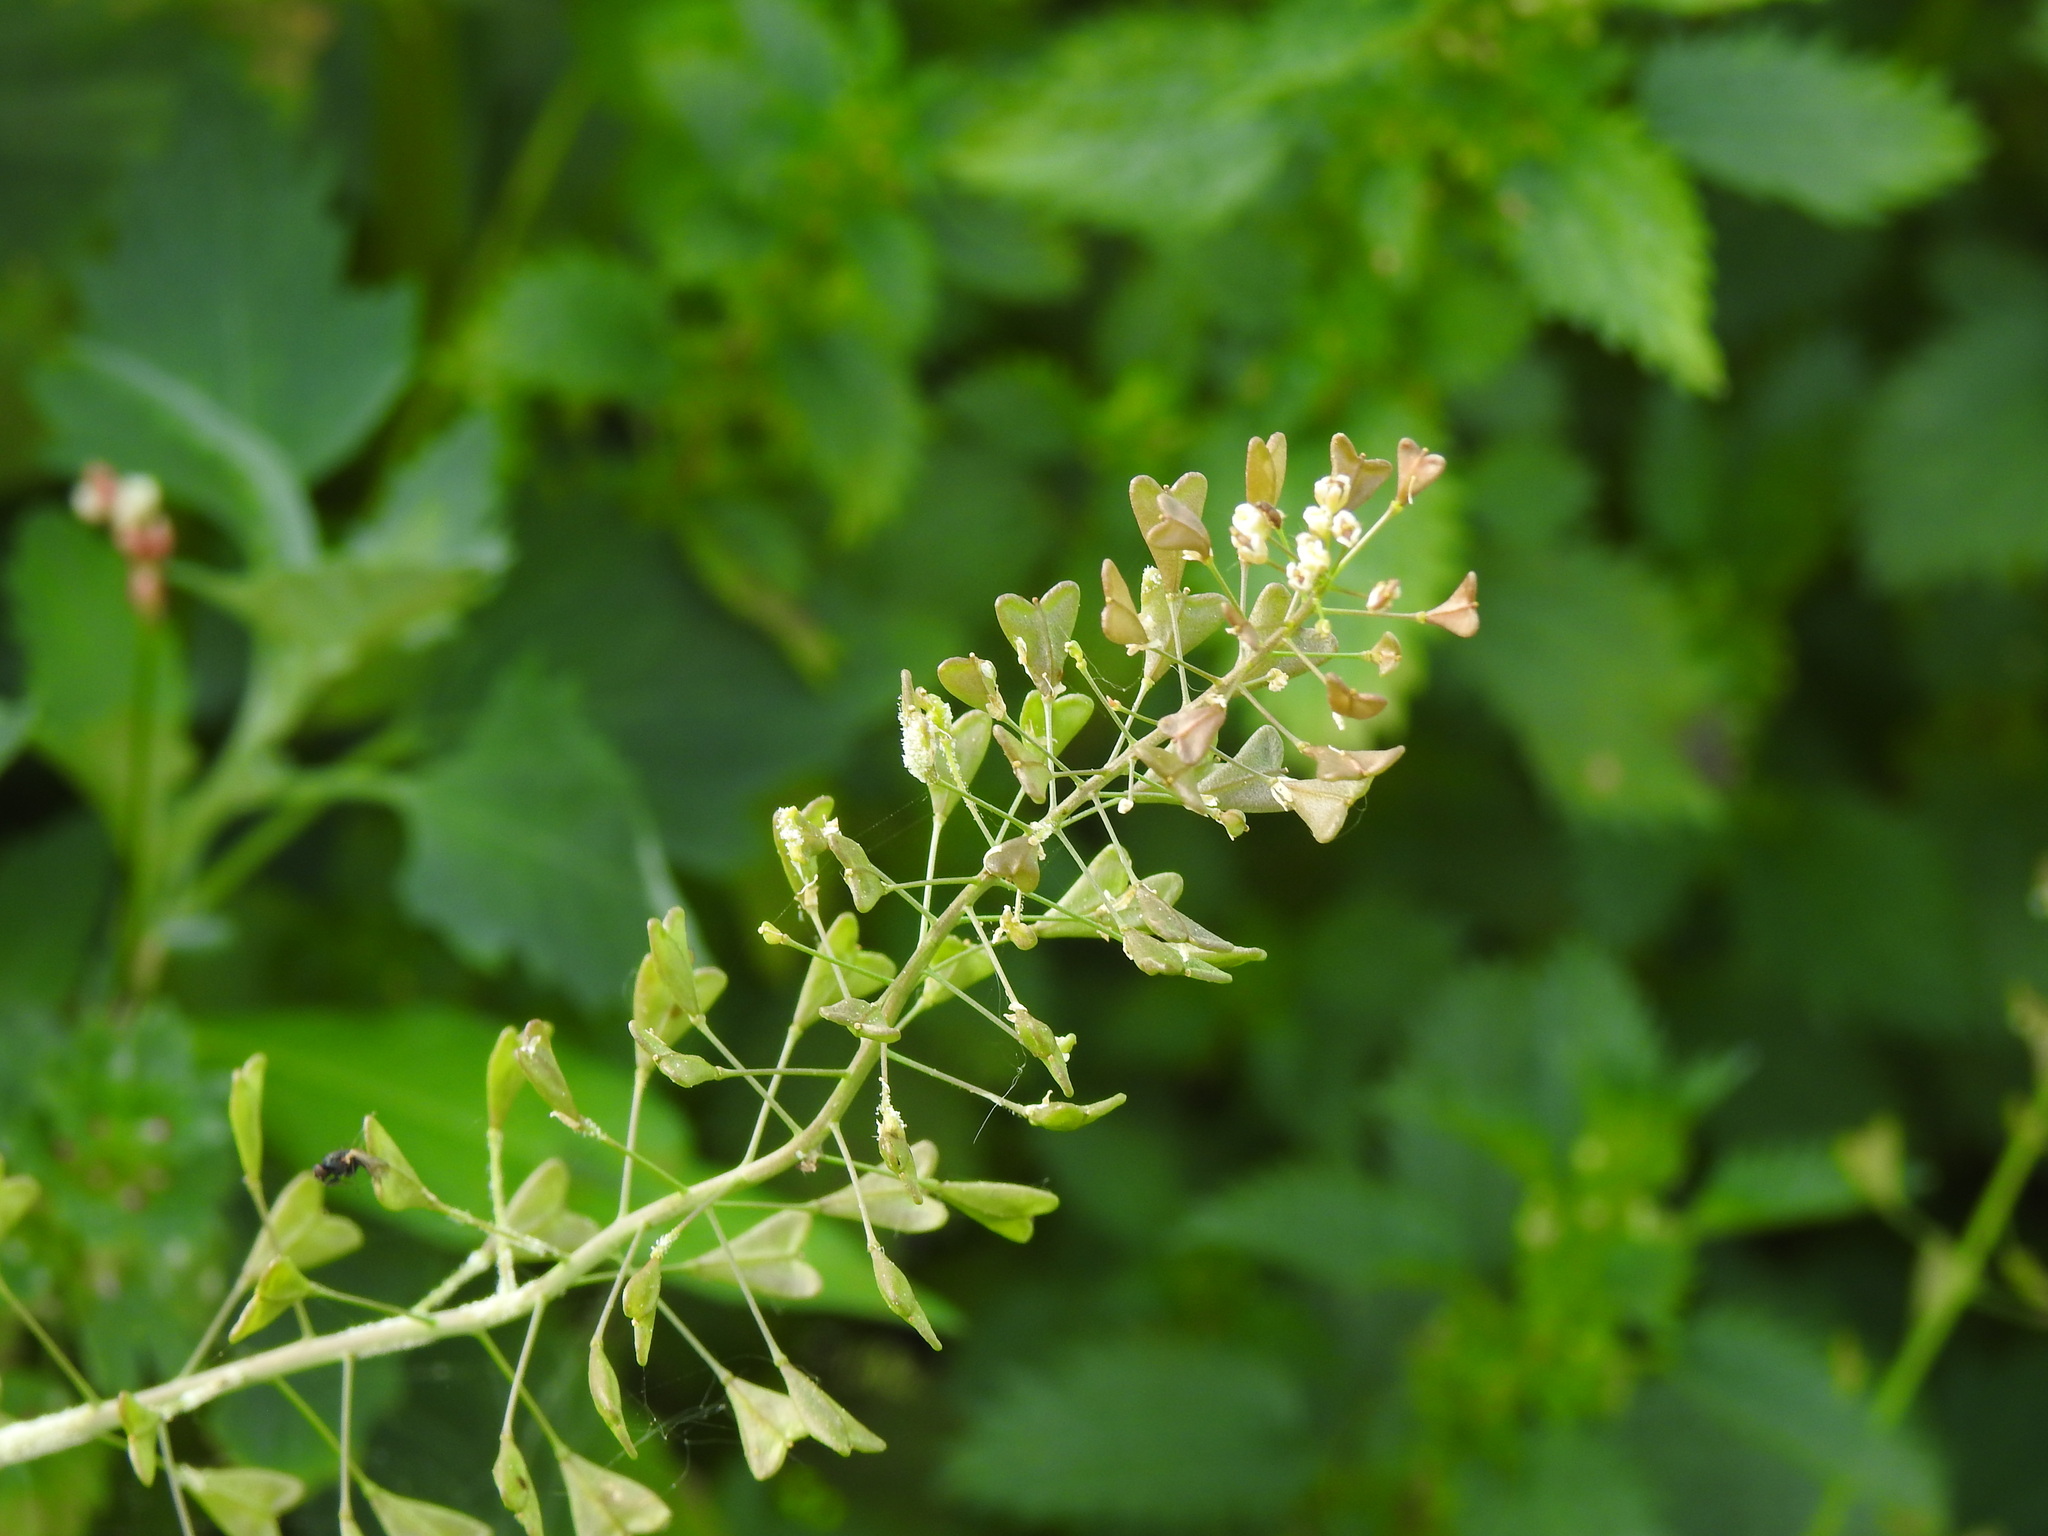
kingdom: Plantae
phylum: Tracheophyta
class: Magnoliopsida
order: Brassicales
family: Brassicaceae
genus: Capsella
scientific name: Capsella bursa-pastoris
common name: Shepherd's purse
